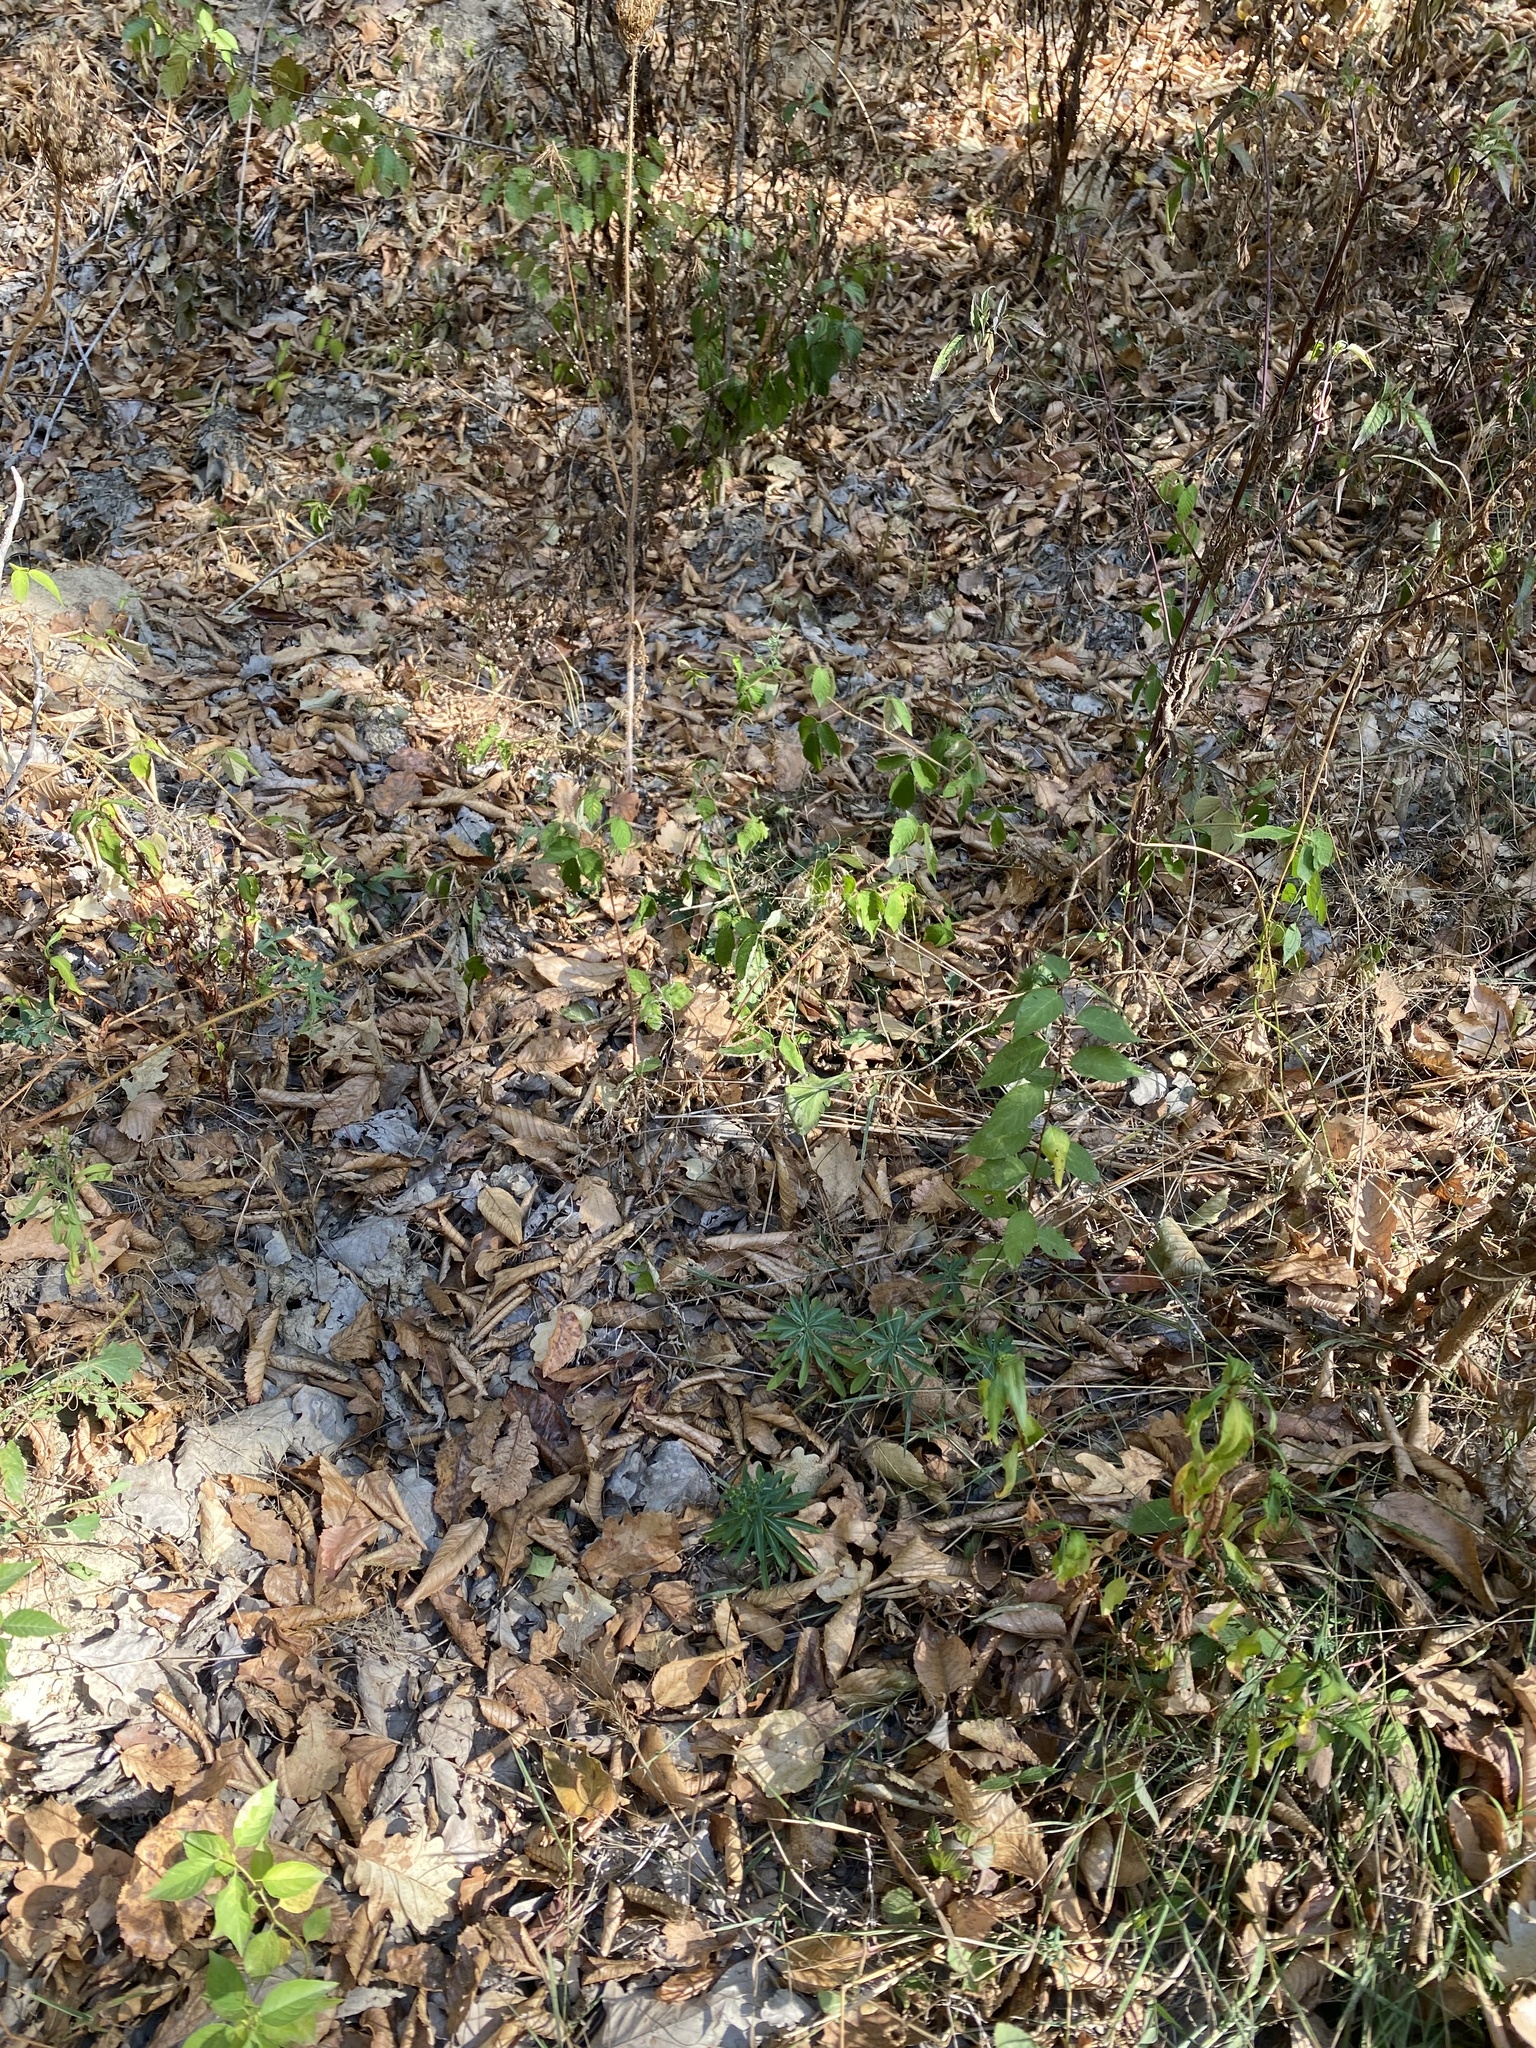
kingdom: Plantae
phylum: Tracheophyta
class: Magnoliopsida
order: Malpighiales
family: Euphorbiaceae
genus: Euphorbia
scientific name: Euphorbia stricta
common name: Upright spurge
